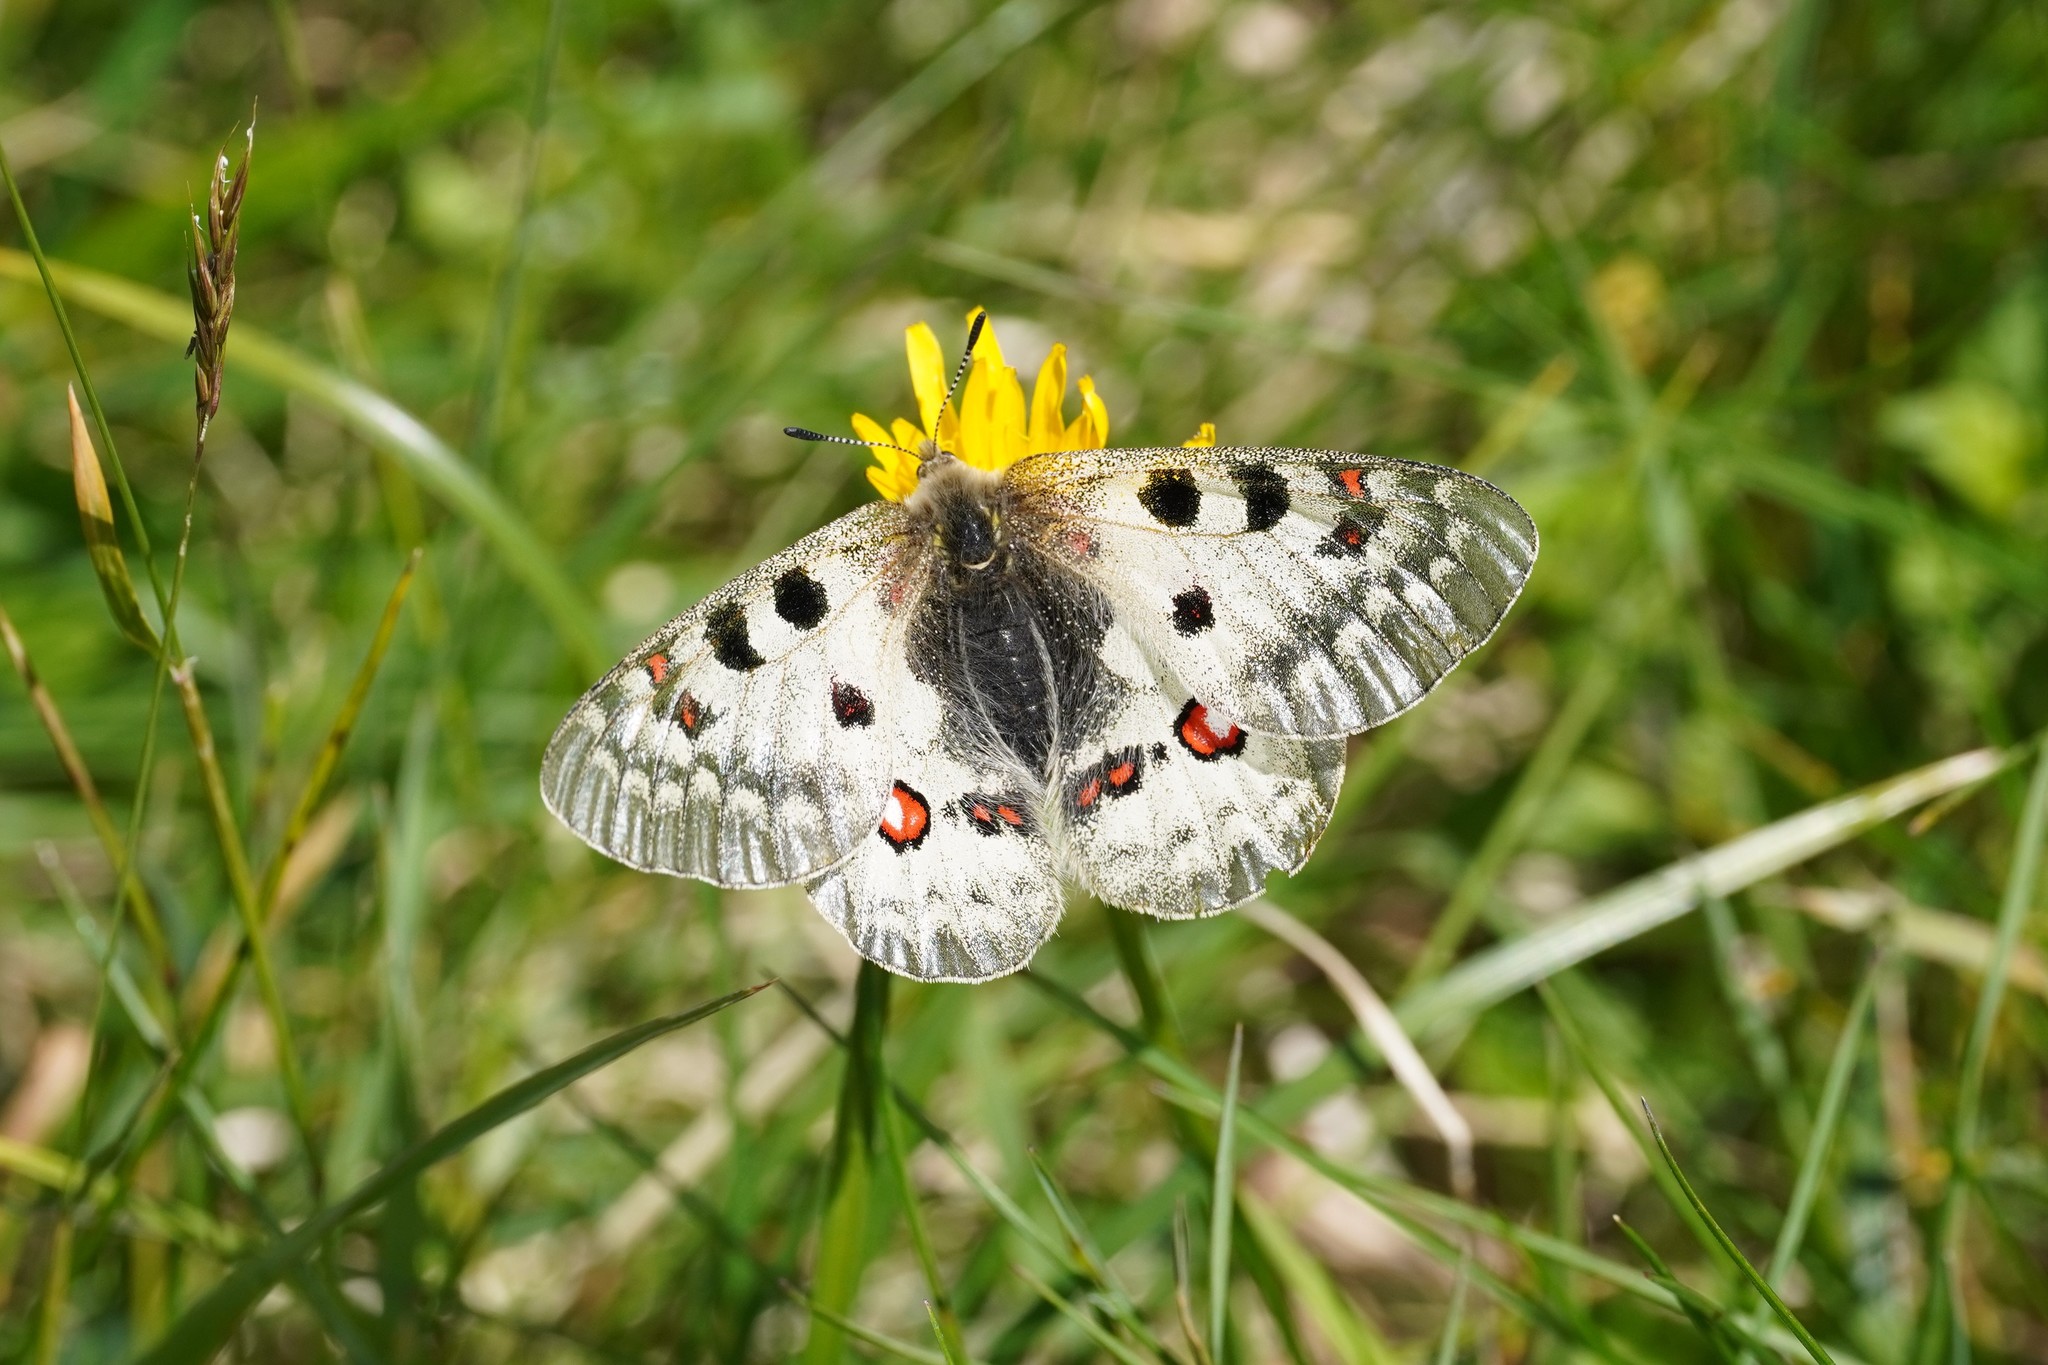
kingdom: Animalia
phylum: Arthropoda
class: Insecta
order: Lepidoptera
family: Papilionidae
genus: Parnassius
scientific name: Parnassius phoebus
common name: Small apollo
